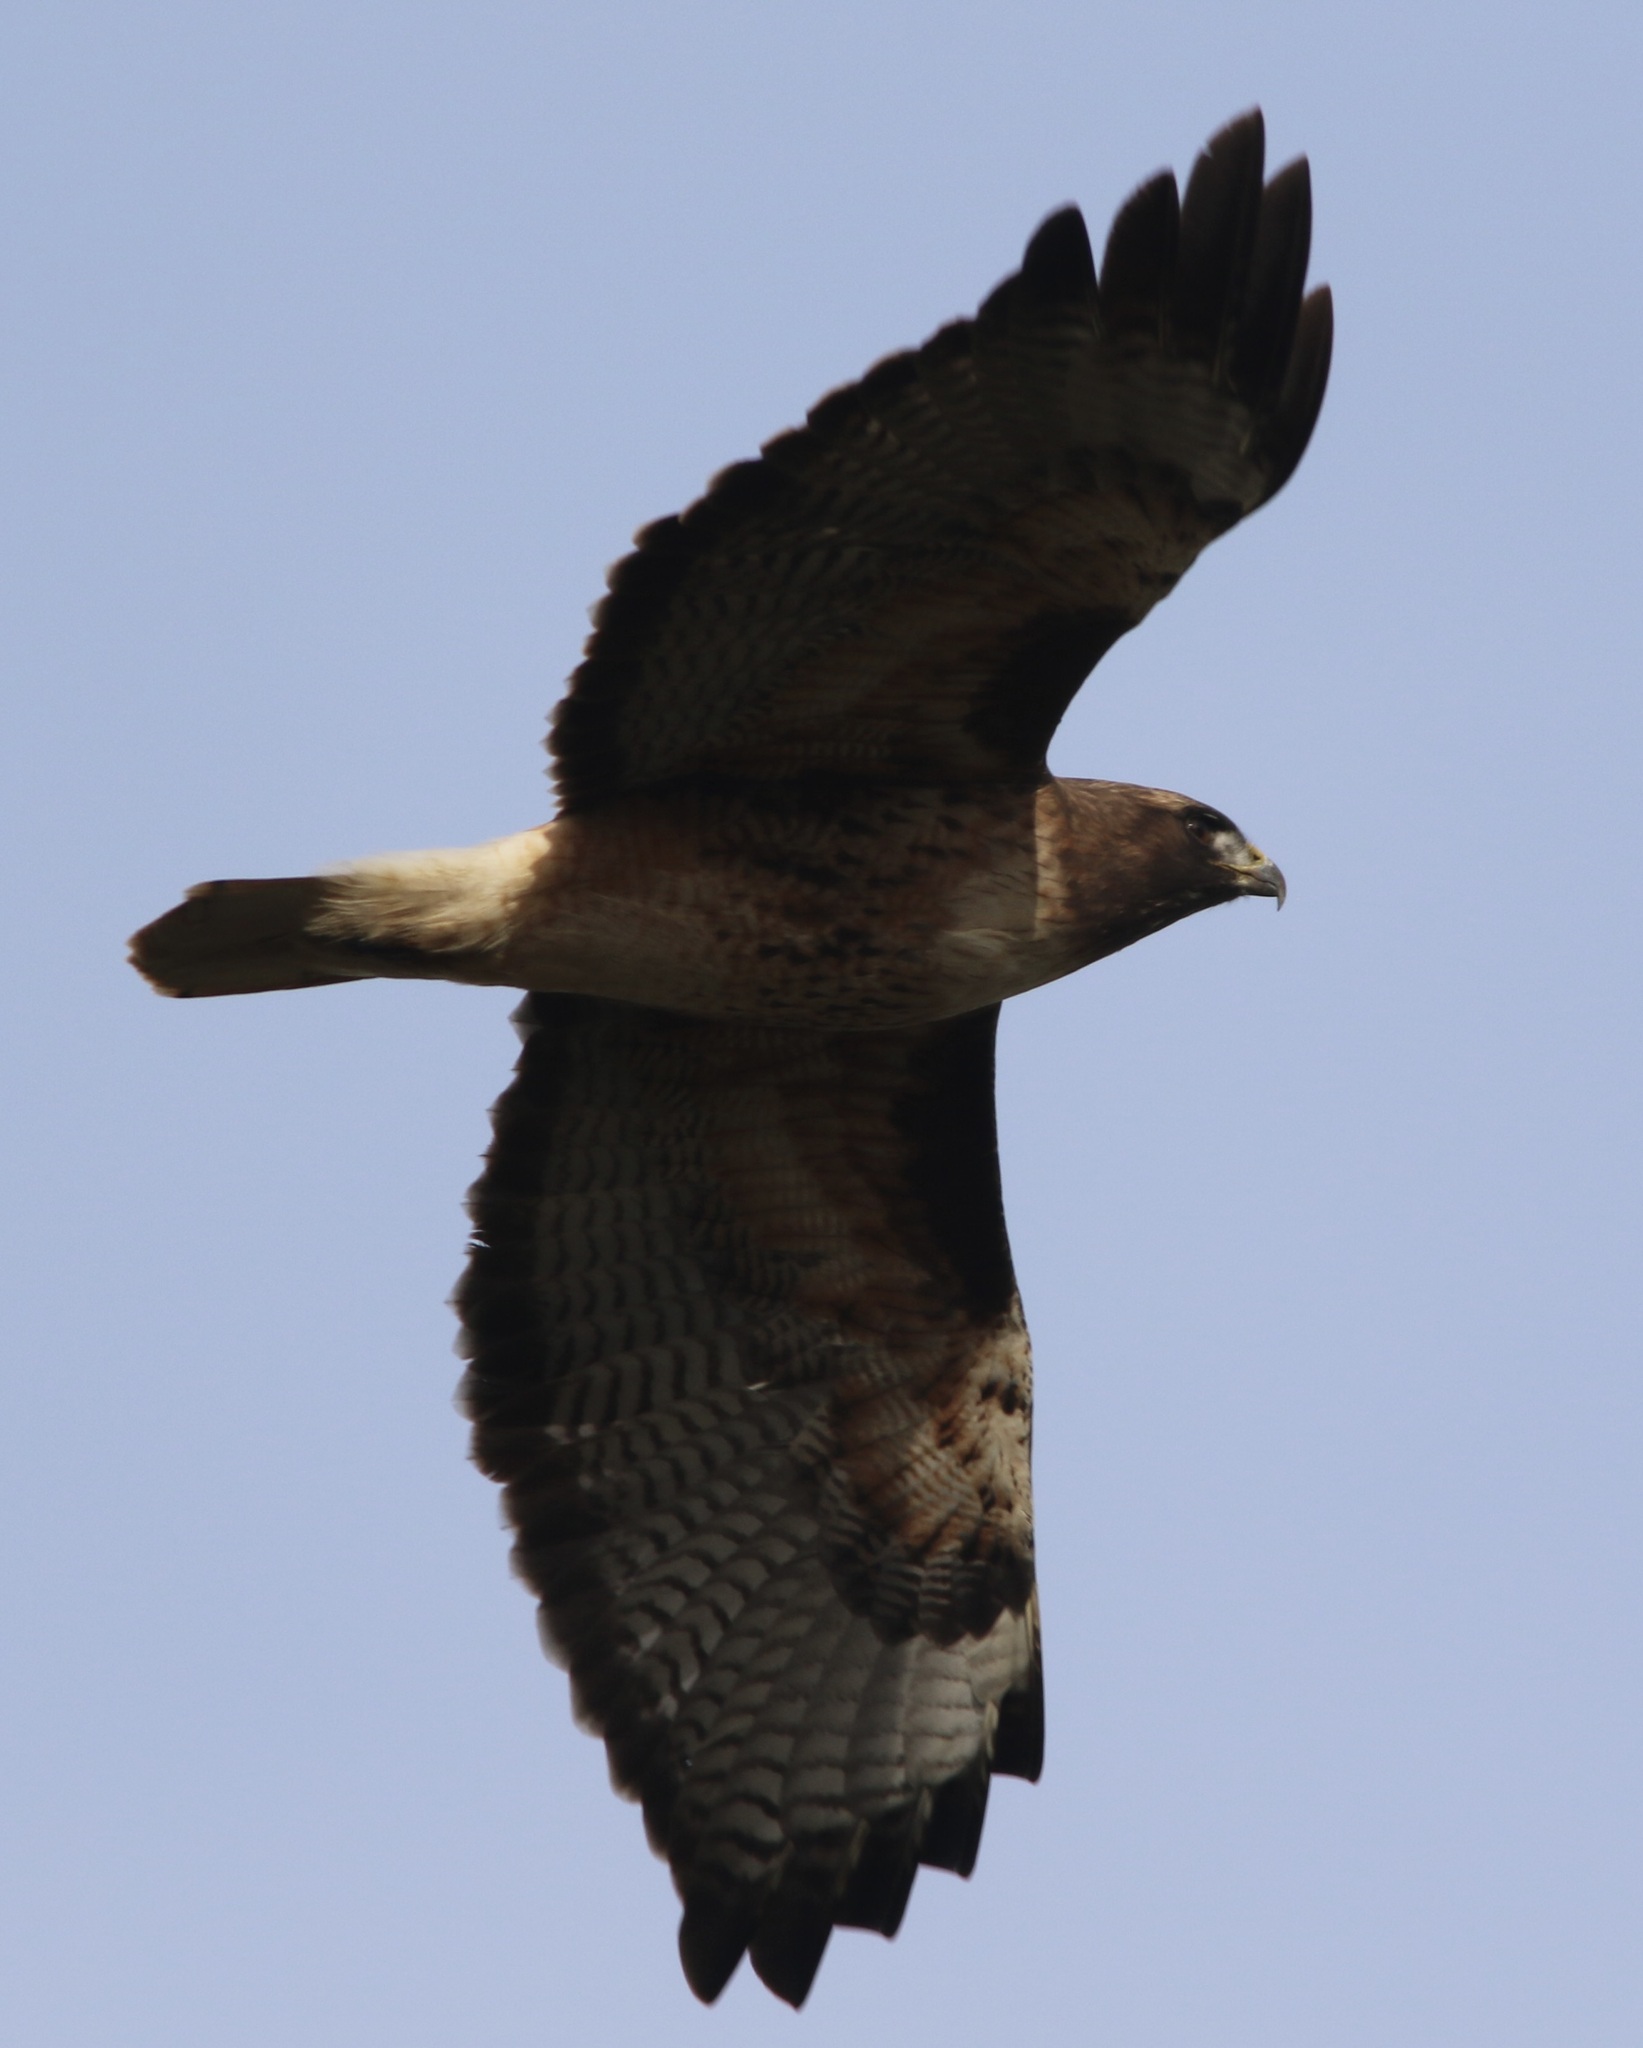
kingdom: Animalia
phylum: Chordata
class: Aves
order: Accipitriformes
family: Accipitridae
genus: Buteo
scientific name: Buteo jamaicensis
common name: Red-tailed hawk
